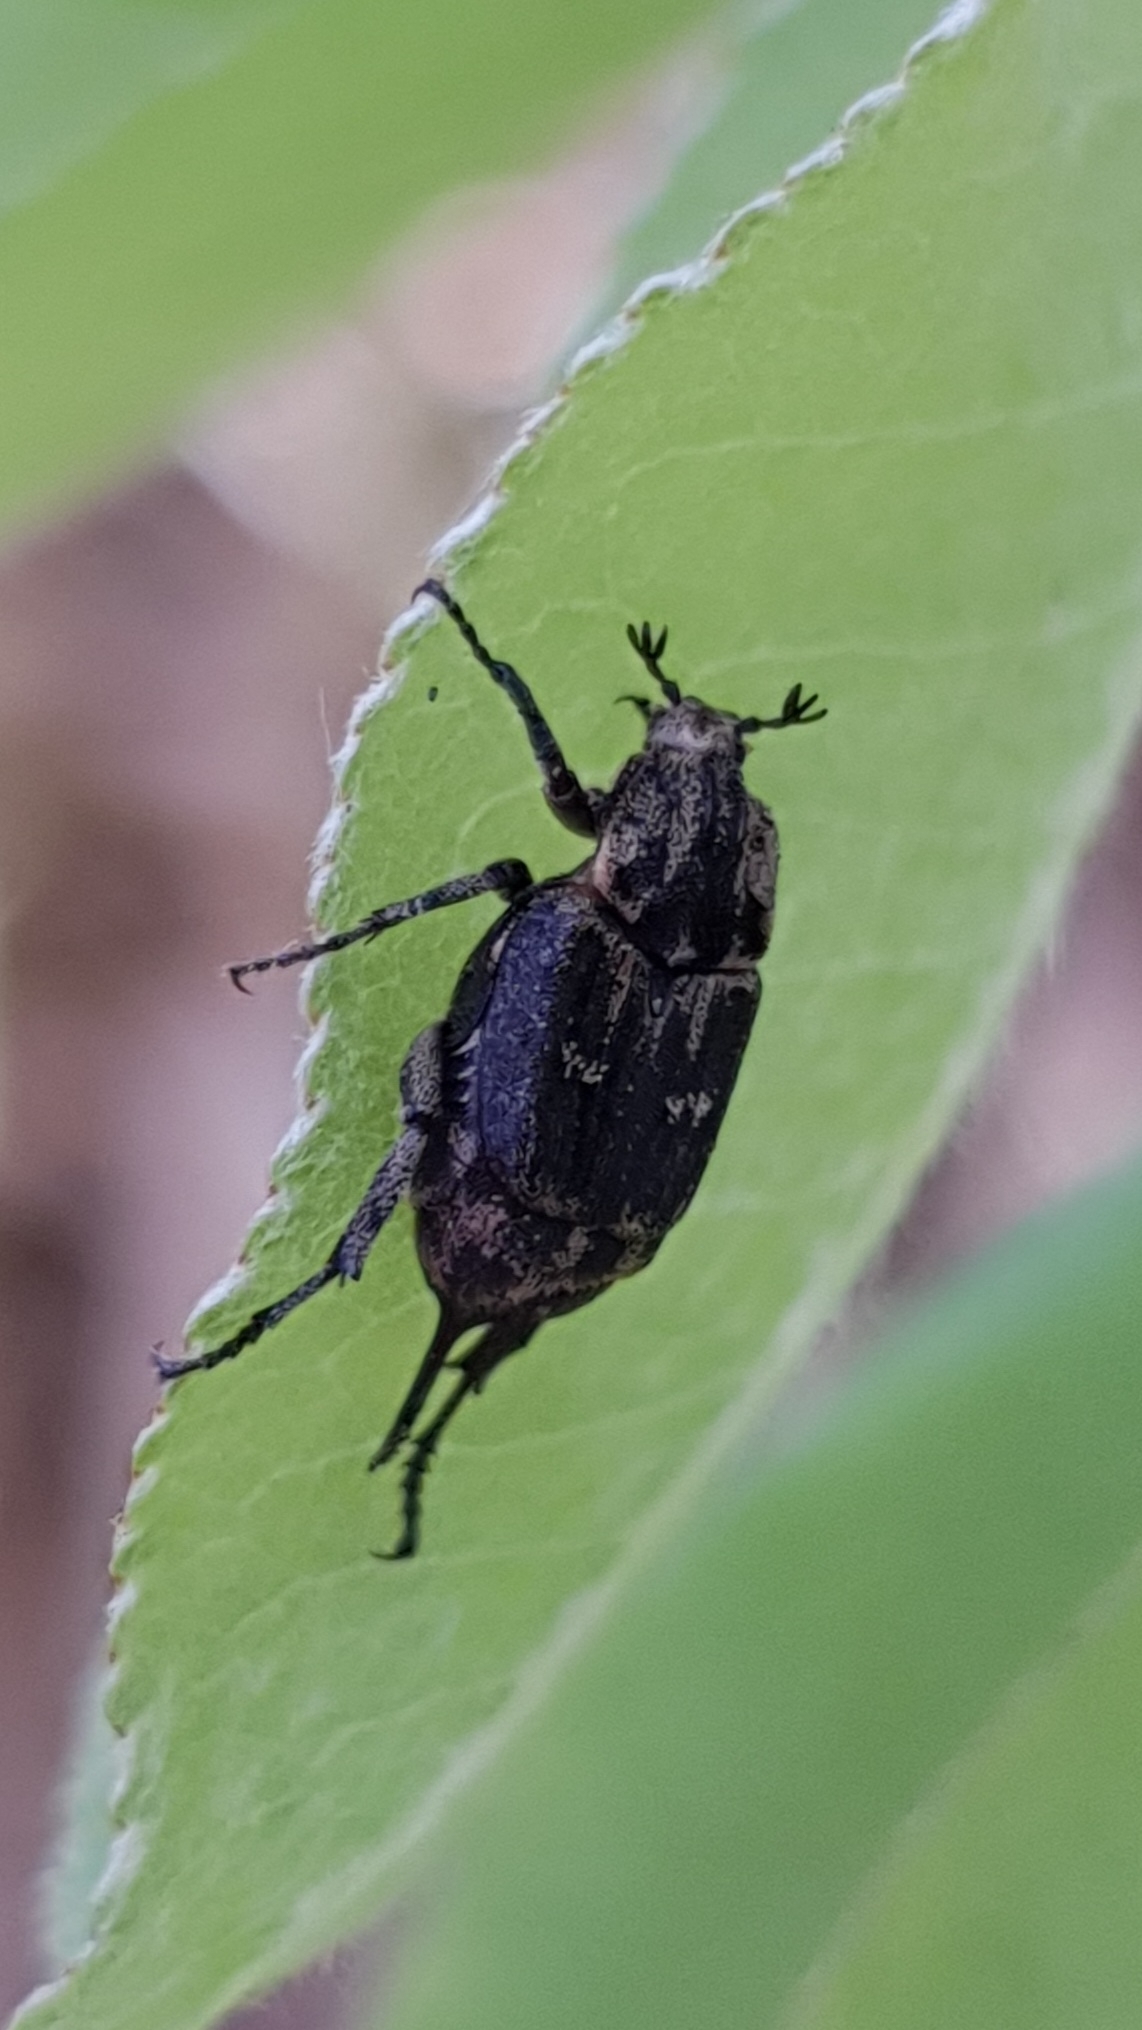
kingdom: Animalia
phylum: Arthropoda
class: Insecta
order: Coleoptera
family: Scarabaeidae
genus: Valgus
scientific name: Valgus hemipterus
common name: Bug flower chafer
